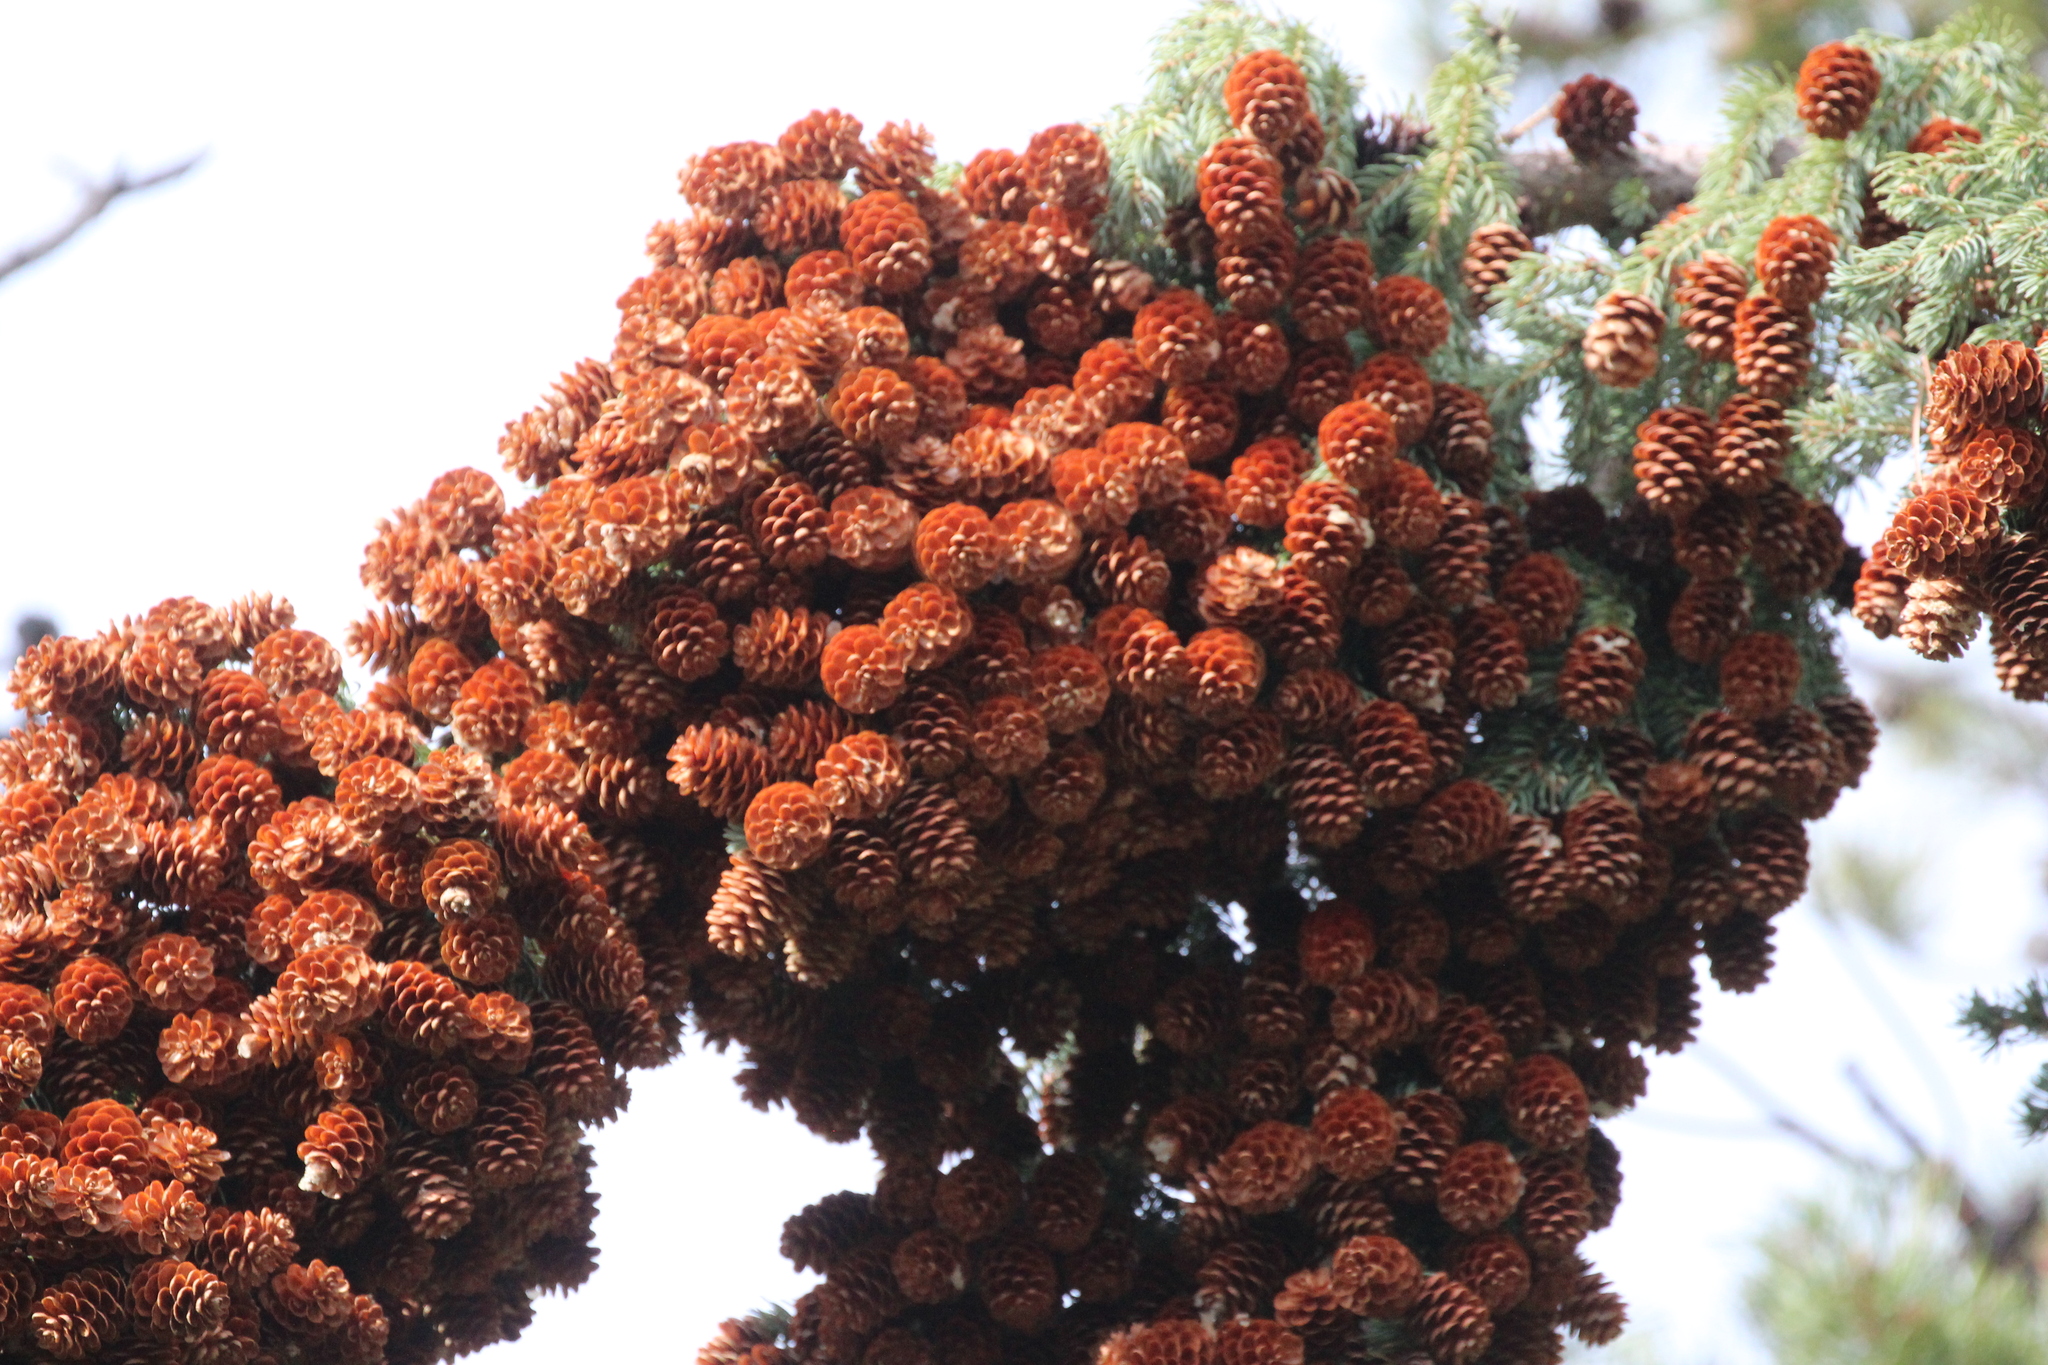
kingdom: Plantae
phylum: Tracheophyta
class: Pinopsida
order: Pinales
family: Pinaceae
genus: Picea
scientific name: Picea glauca
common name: White spruce
